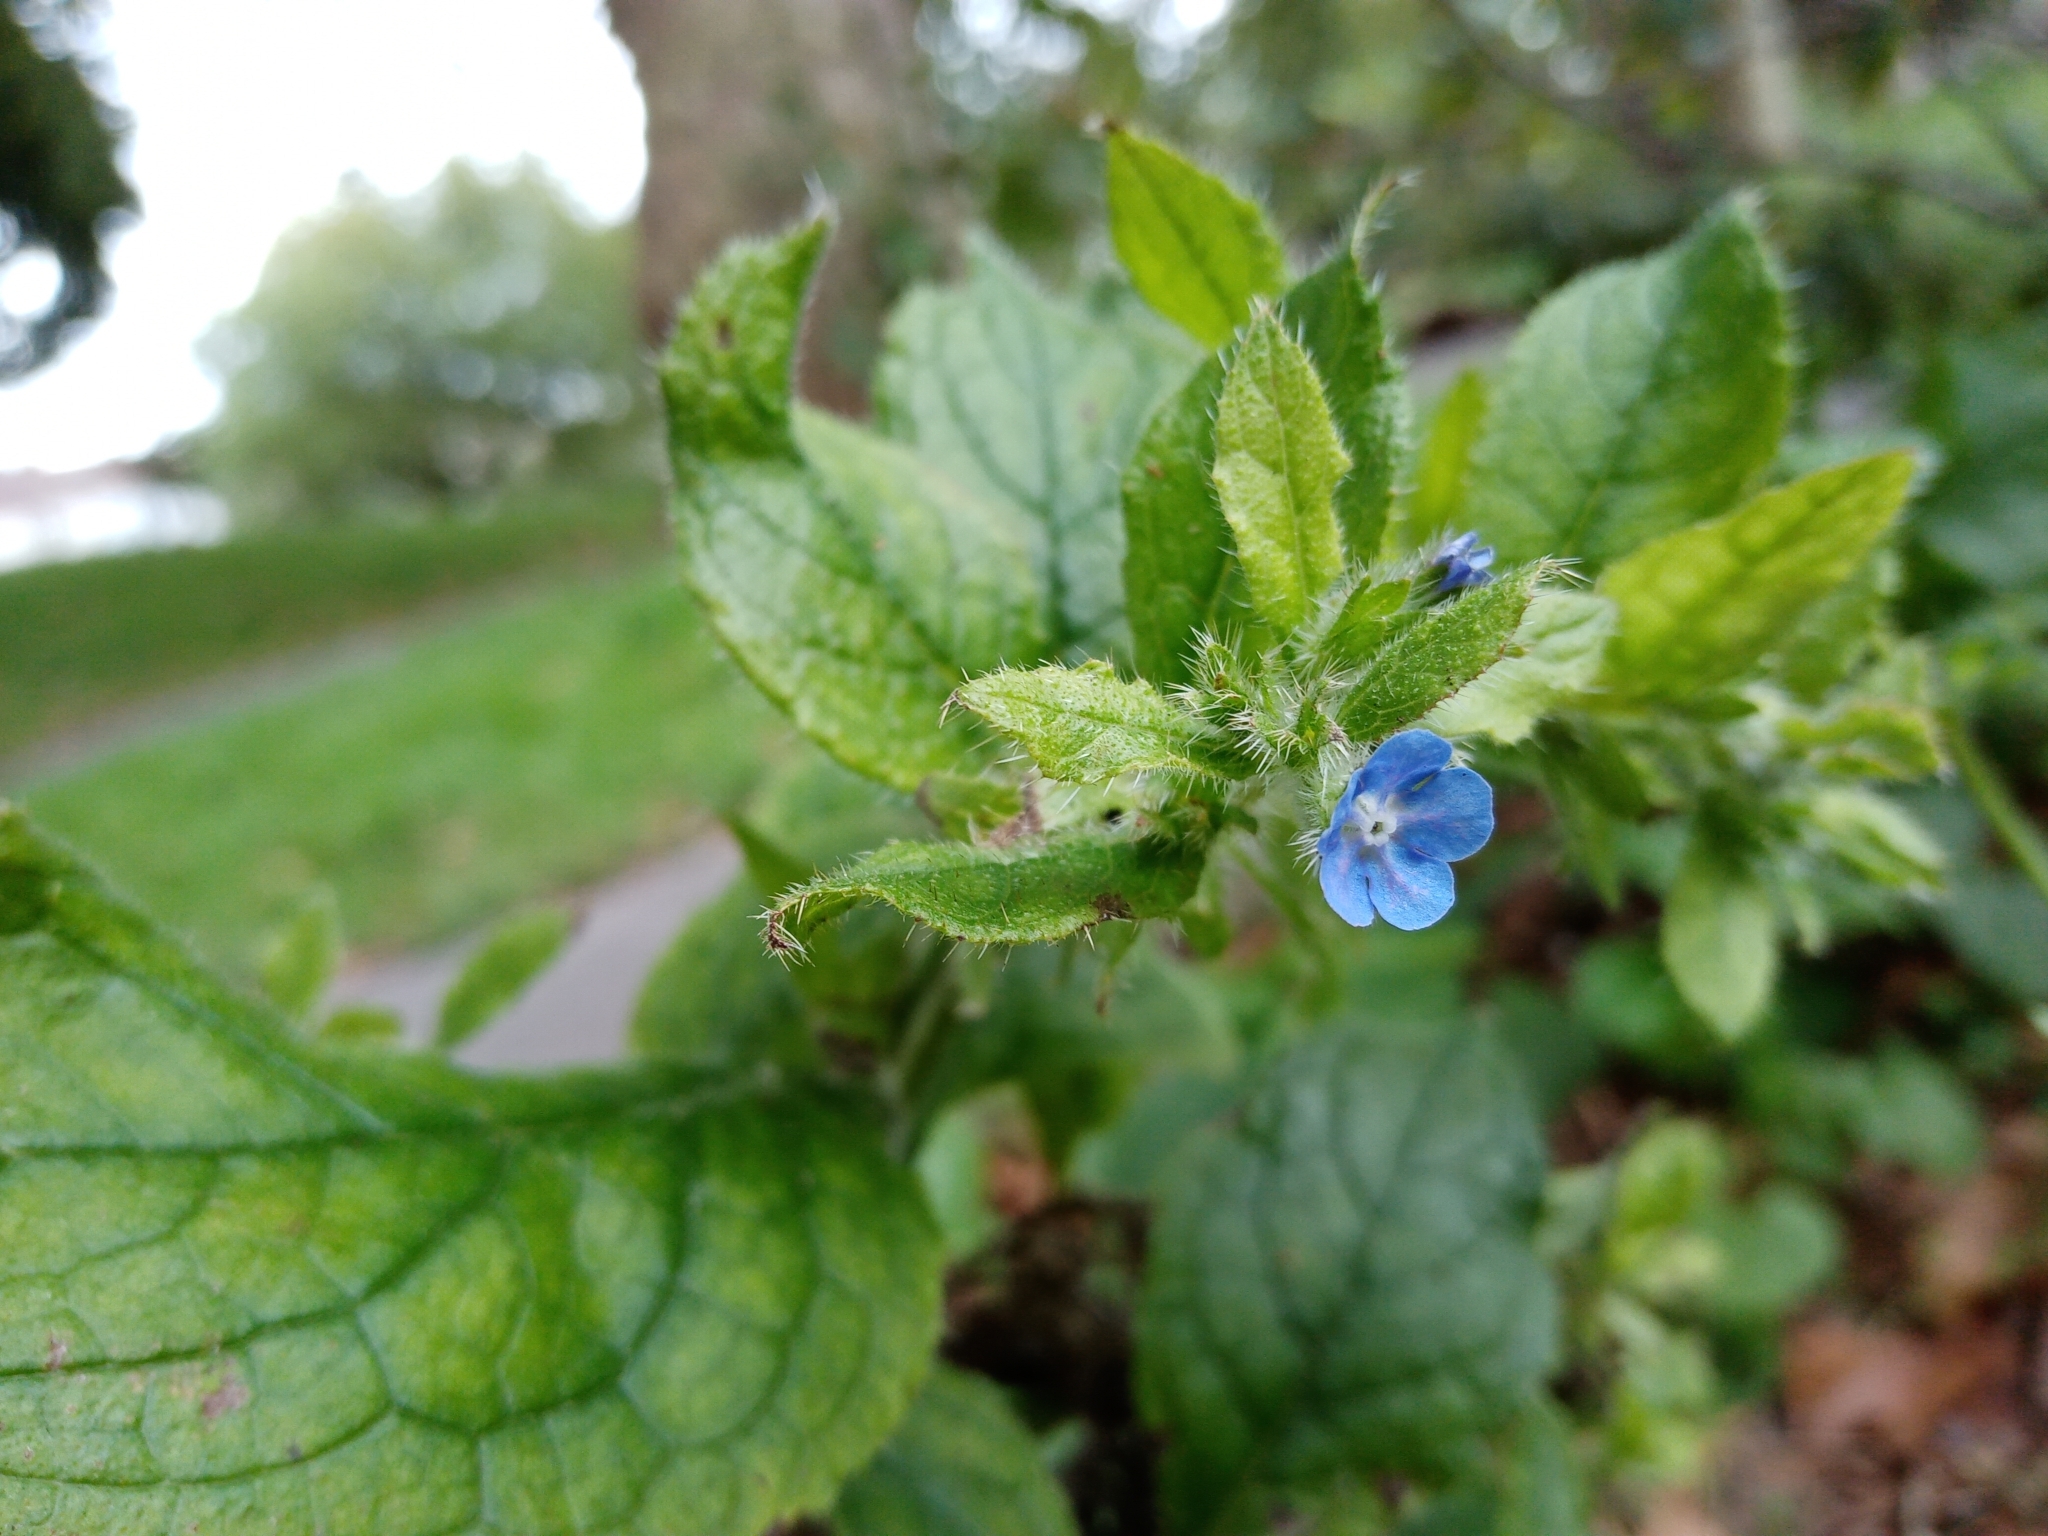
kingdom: Plantae
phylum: Tracheophyta
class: Magnoliopsida
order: Boraginales
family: Boraginaceae
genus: Pentaglottis
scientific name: Pentaglottis sempervirens
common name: Green alkanet
